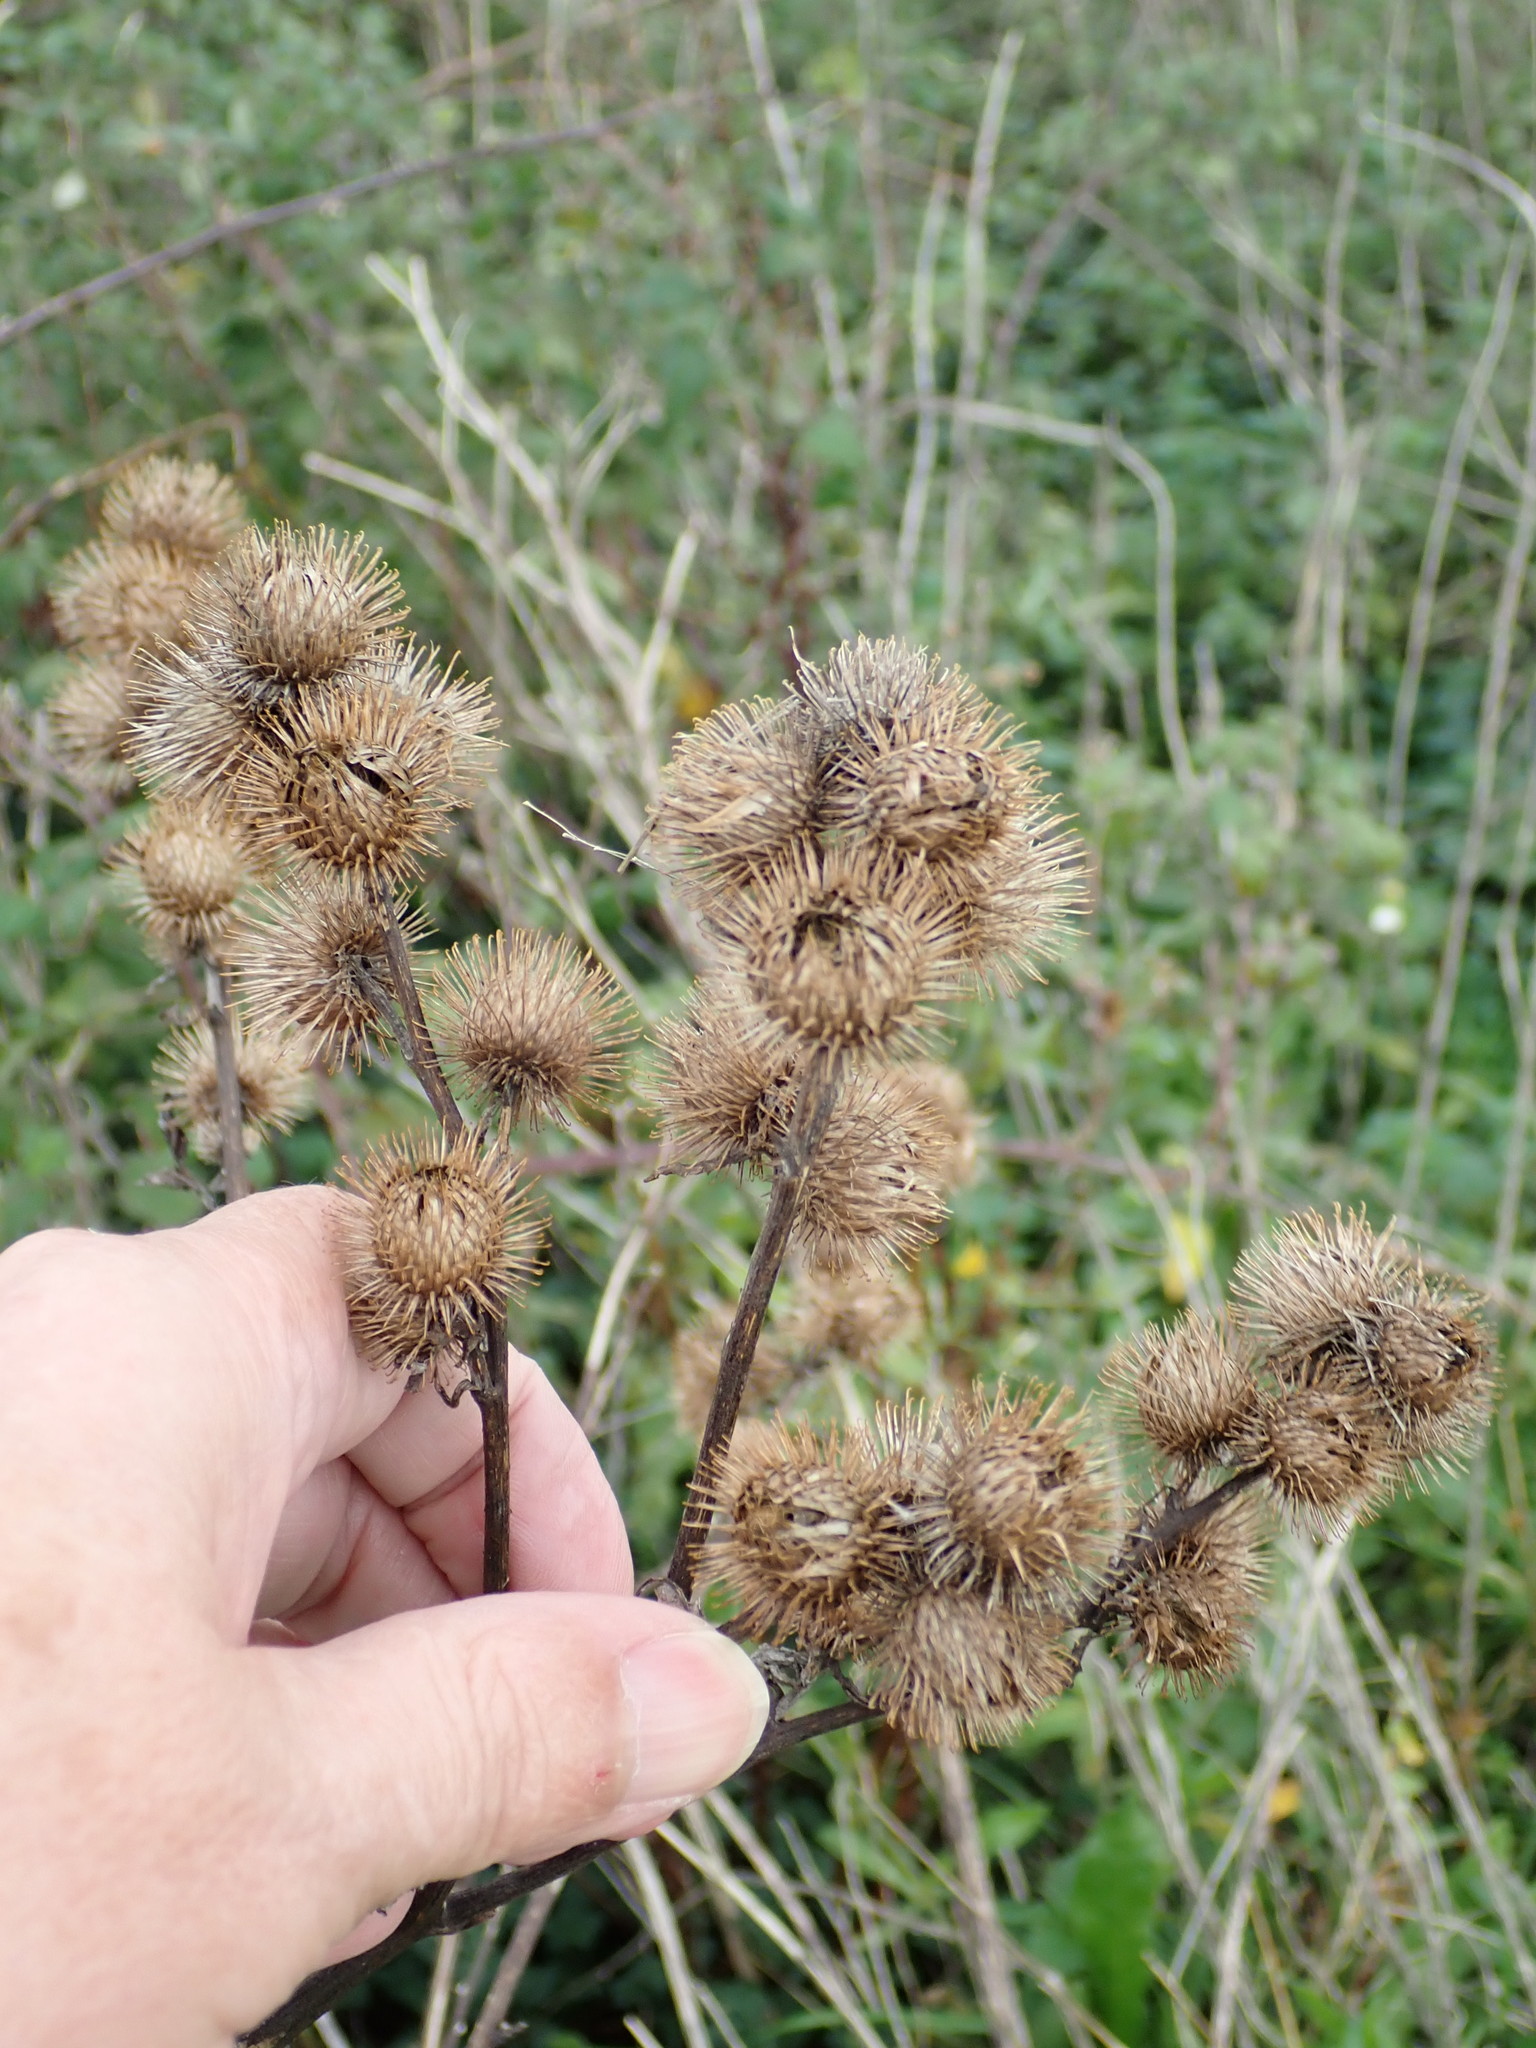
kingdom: Plantae
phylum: Tracheophyta
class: Magnoliopsida
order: Asterales
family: Asteraceae
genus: Arctium
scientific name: Arctium minus
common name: Lesser burdock
